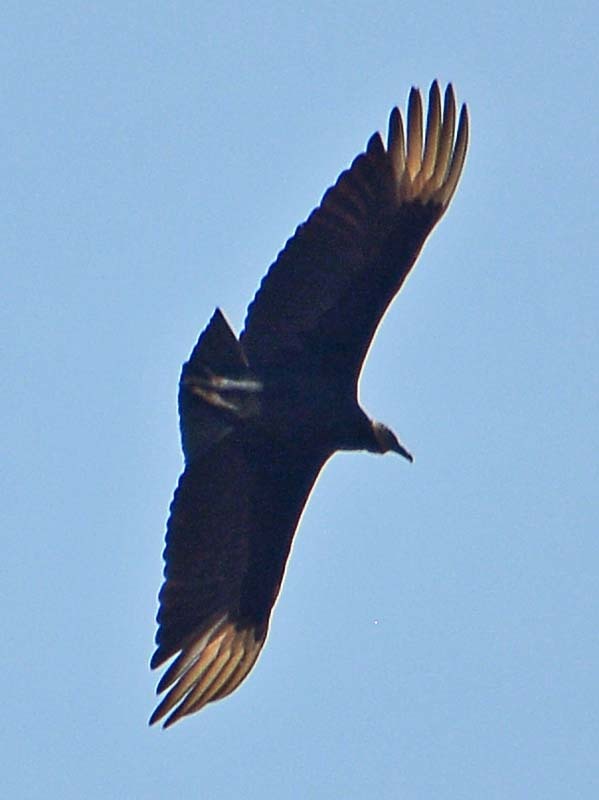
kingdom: Animalia
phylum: Chordata
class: Aves
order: Accipitriformes
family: Cathartidae
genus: Coragyps
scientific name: Coragyps atratus
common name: Black vulture
